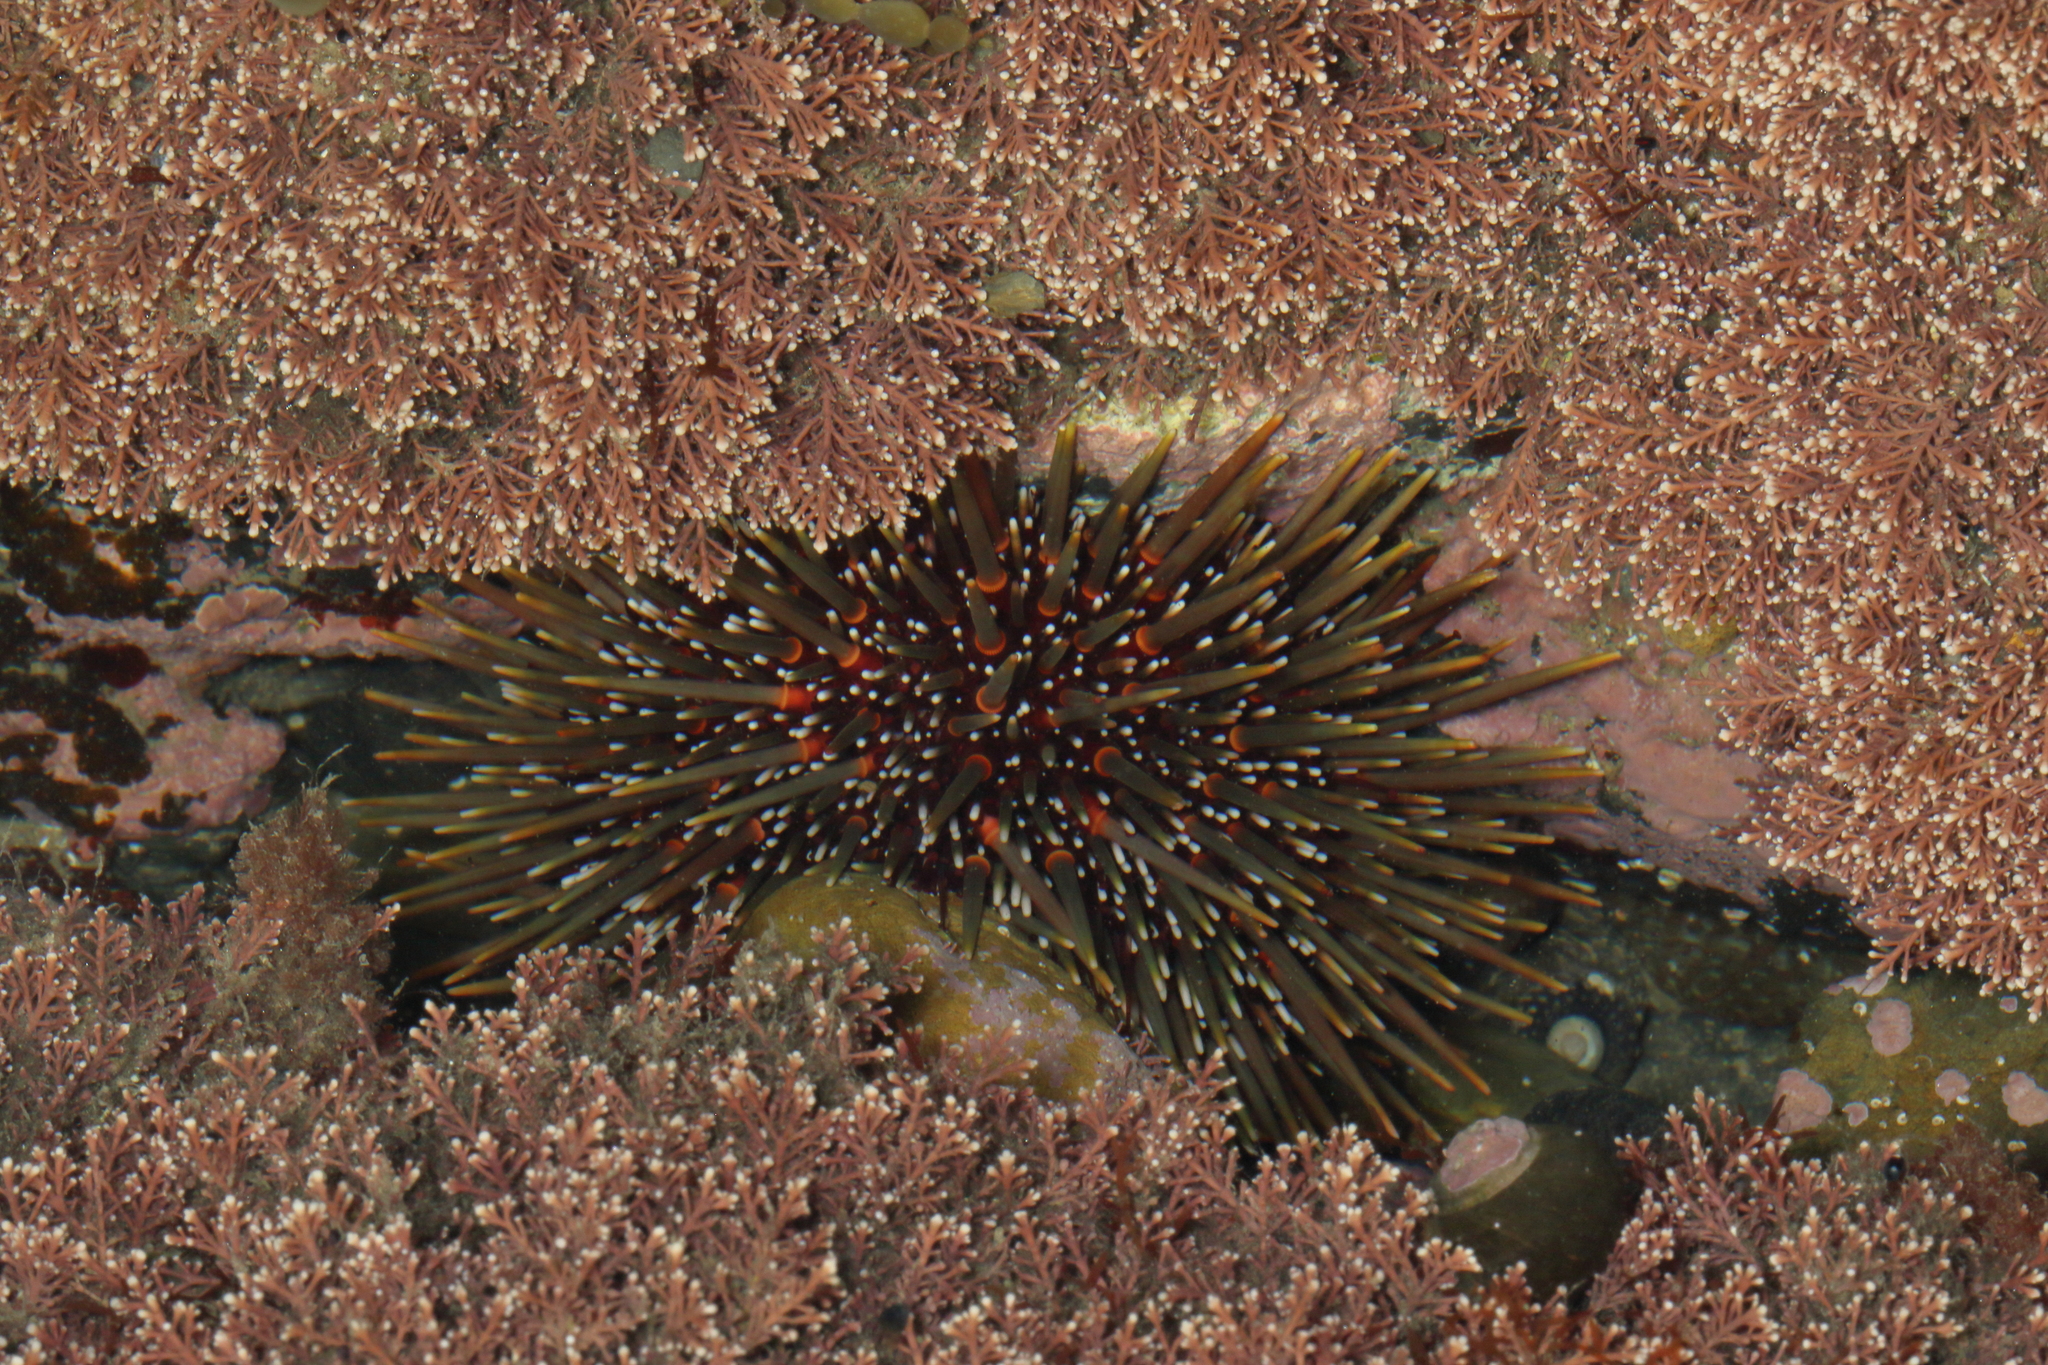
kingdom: Animalia
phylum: Echinodermata
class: Echinoidea
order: Camarodonta
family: Echinometridae
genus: Evechinus
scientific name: Evechinus chloroticus
